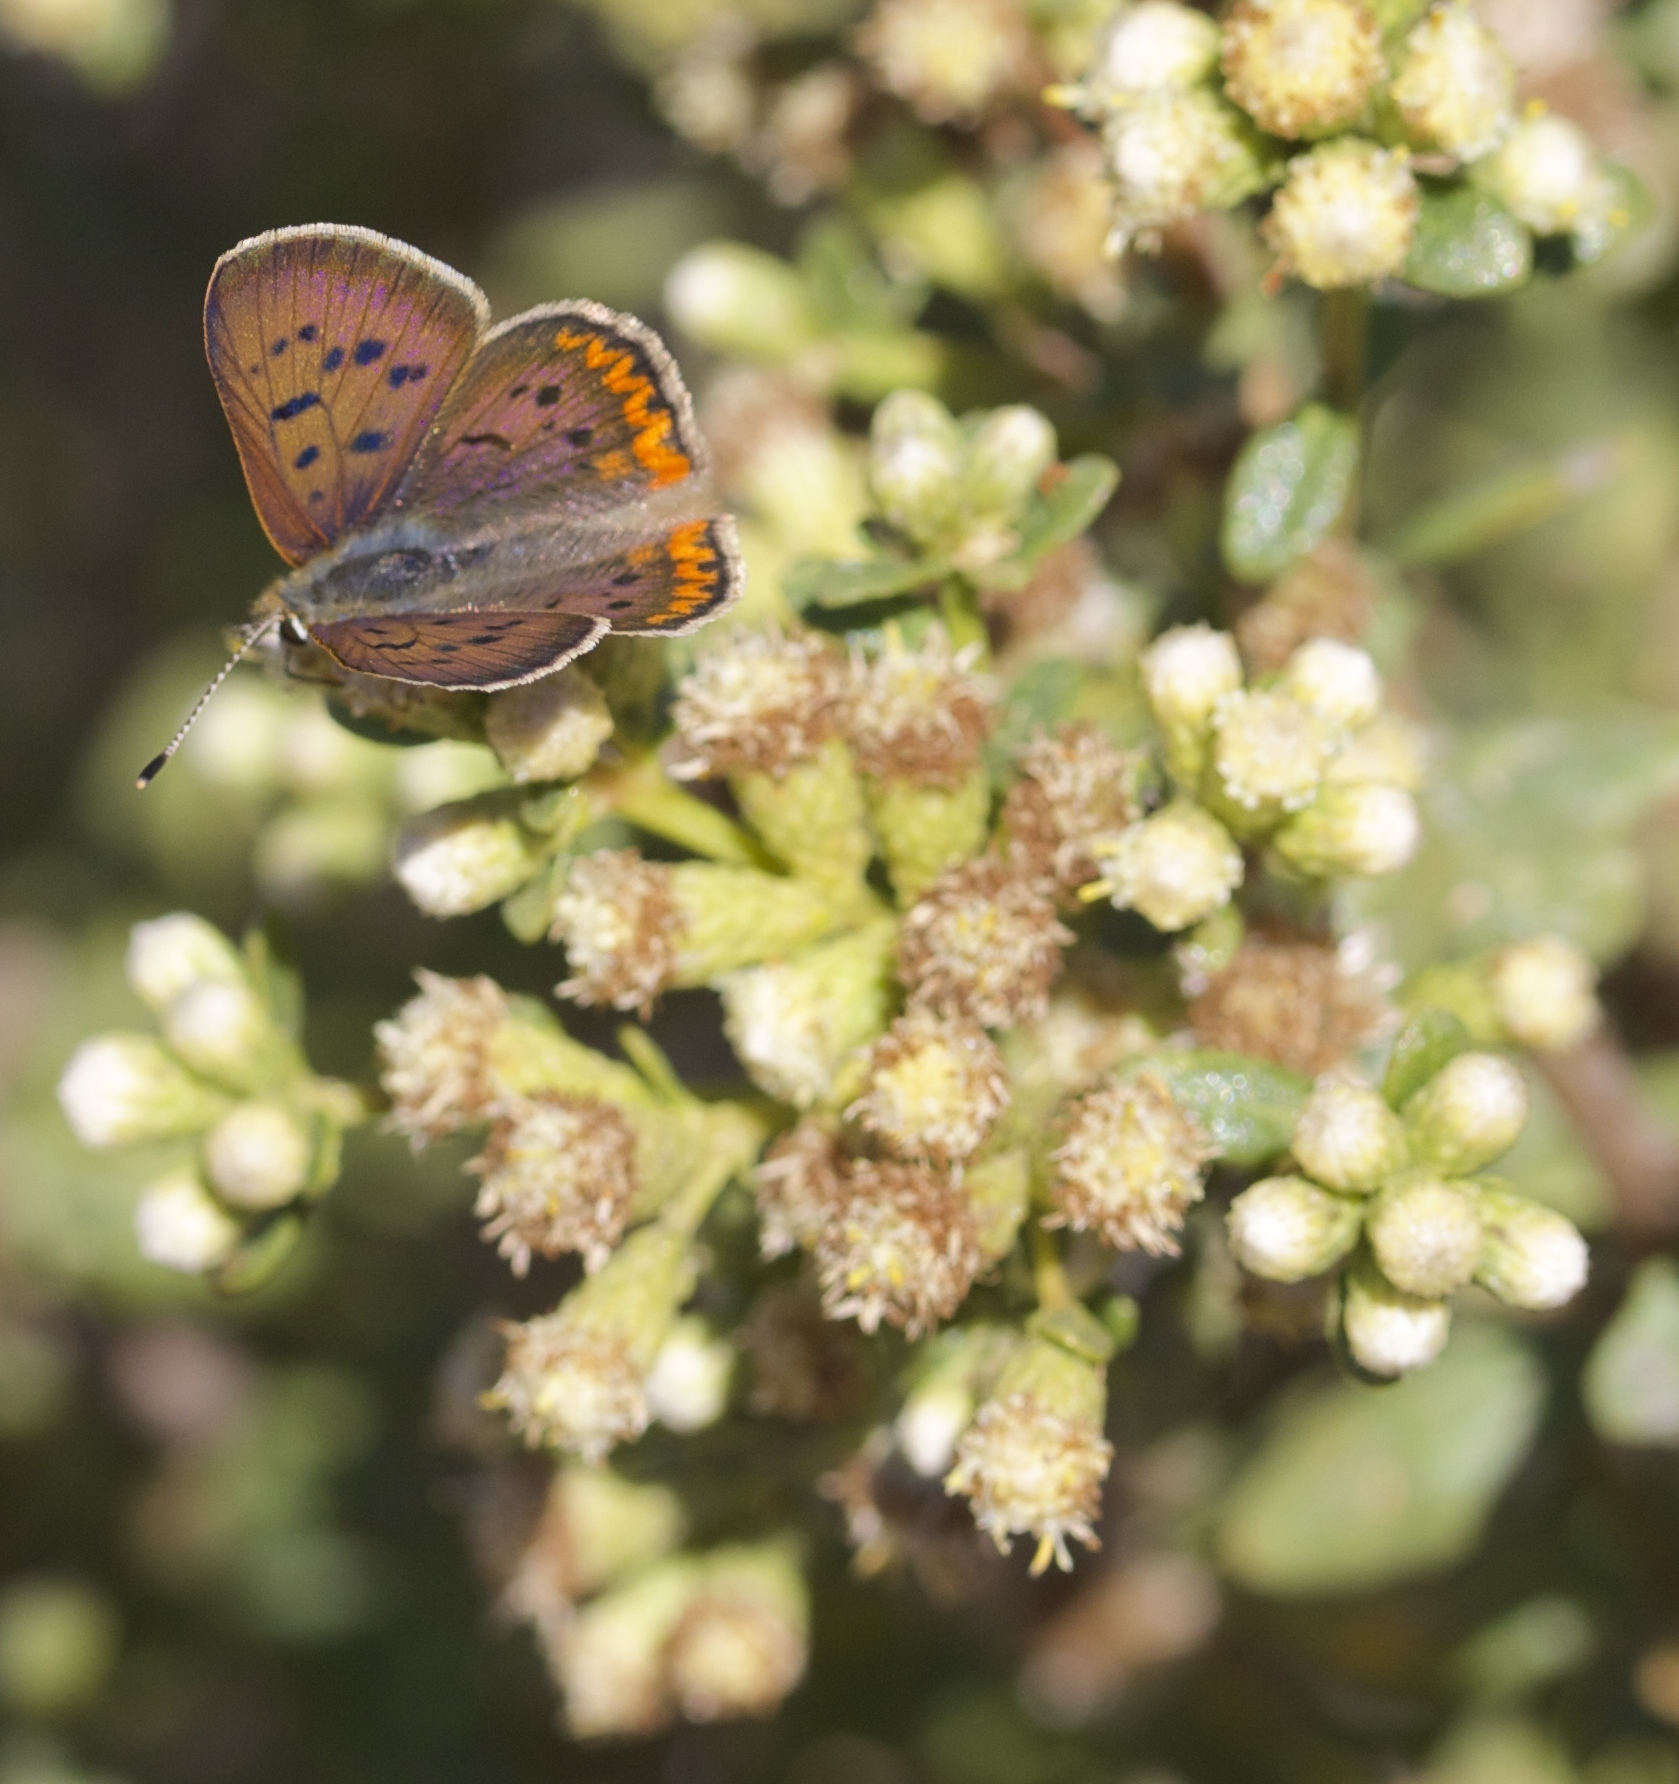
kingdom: Animalia
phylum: Arthropoda
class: Insecta
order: Lepidoptera
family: Lycaenidae
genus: Tharsalea
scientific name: Tharsalea helloides
